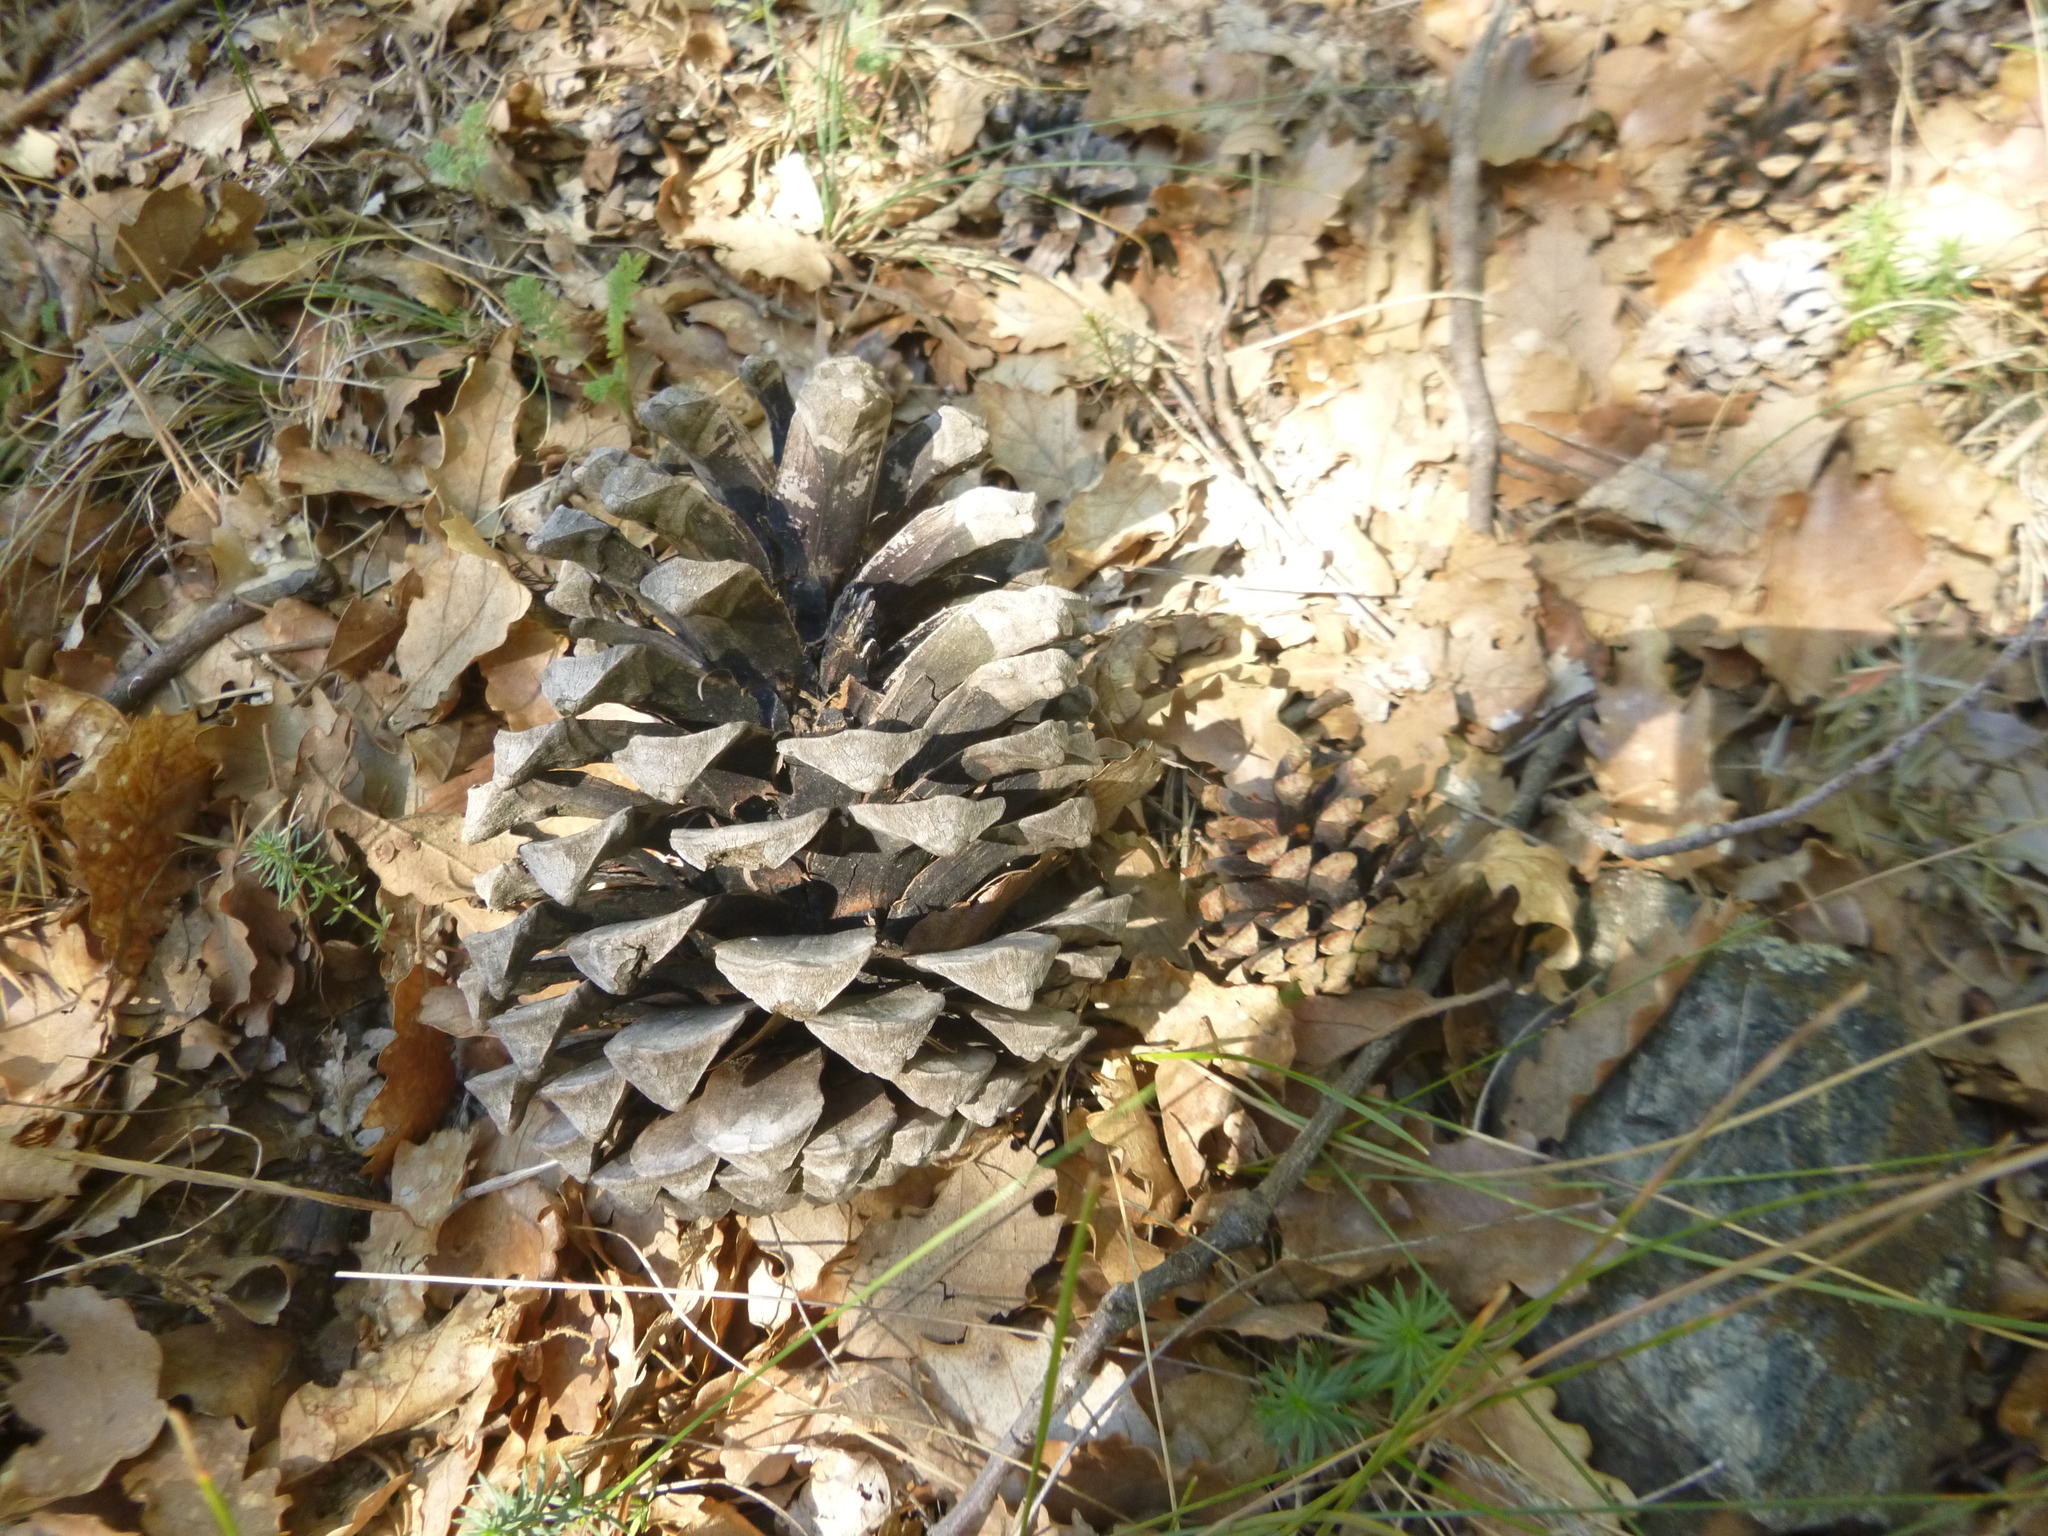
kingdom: Plantae
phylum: Tracheophyta
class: Pinopsida
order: Pinales
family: Pinaceae
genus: Pinus
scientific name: Pinus pinaster
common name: Maritime pine
